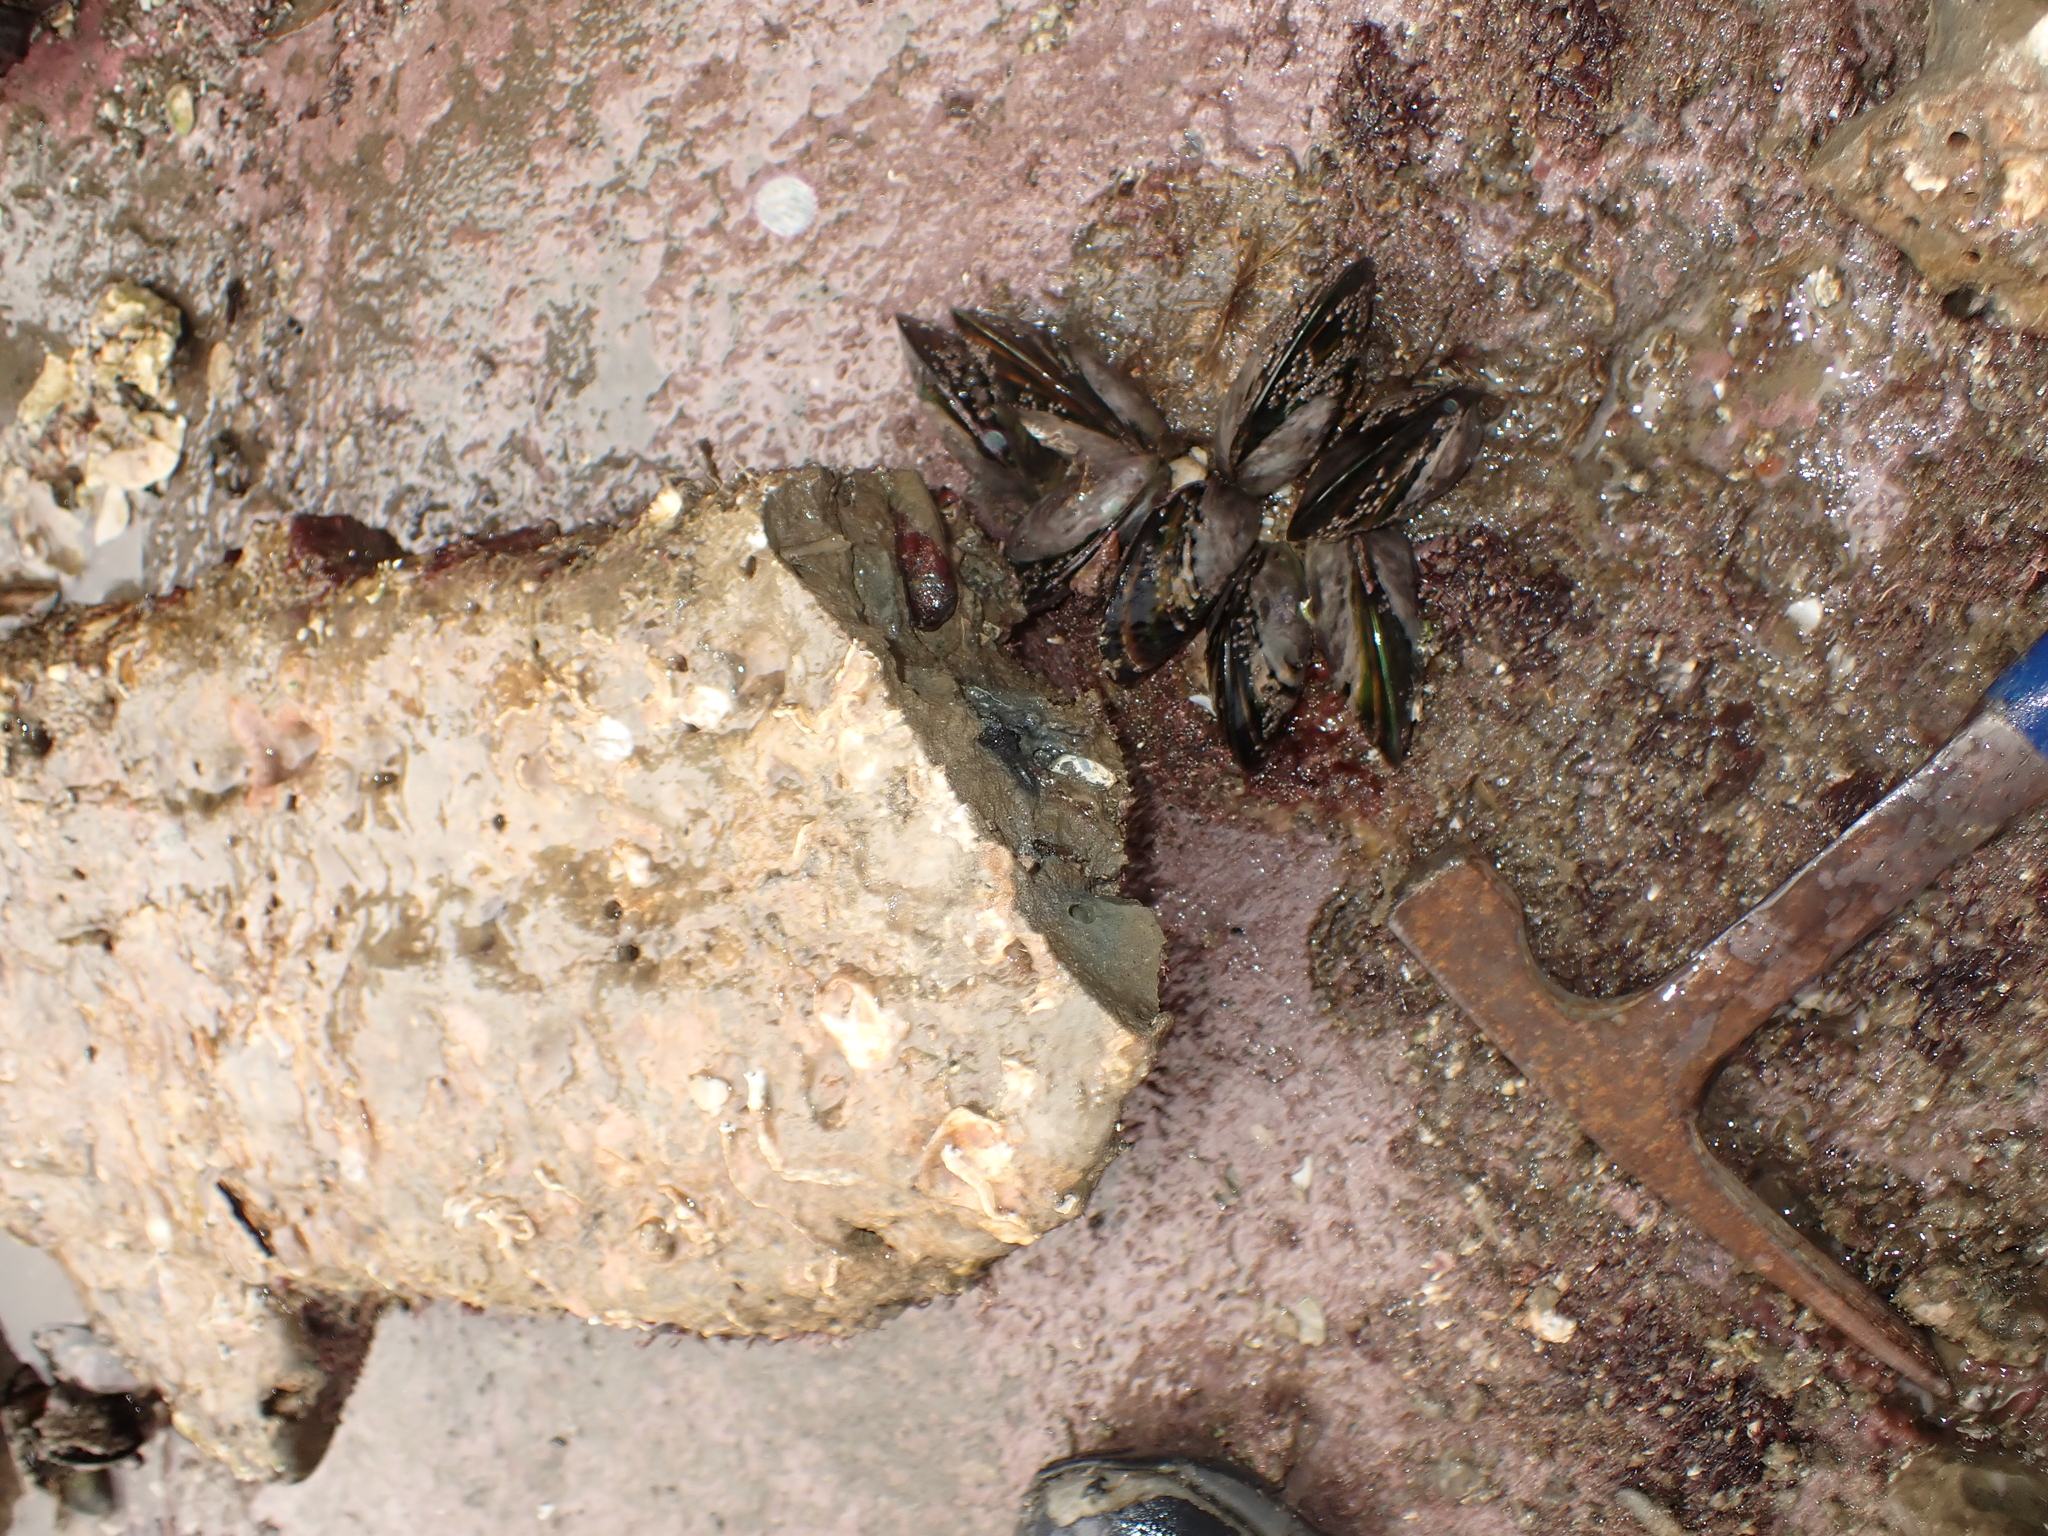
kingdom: Animalia
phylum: Mollusca
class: Bivalvia
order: Mytilida
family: Mytilidae
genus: Zelithophaga
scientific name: Zelithophaga truncata
